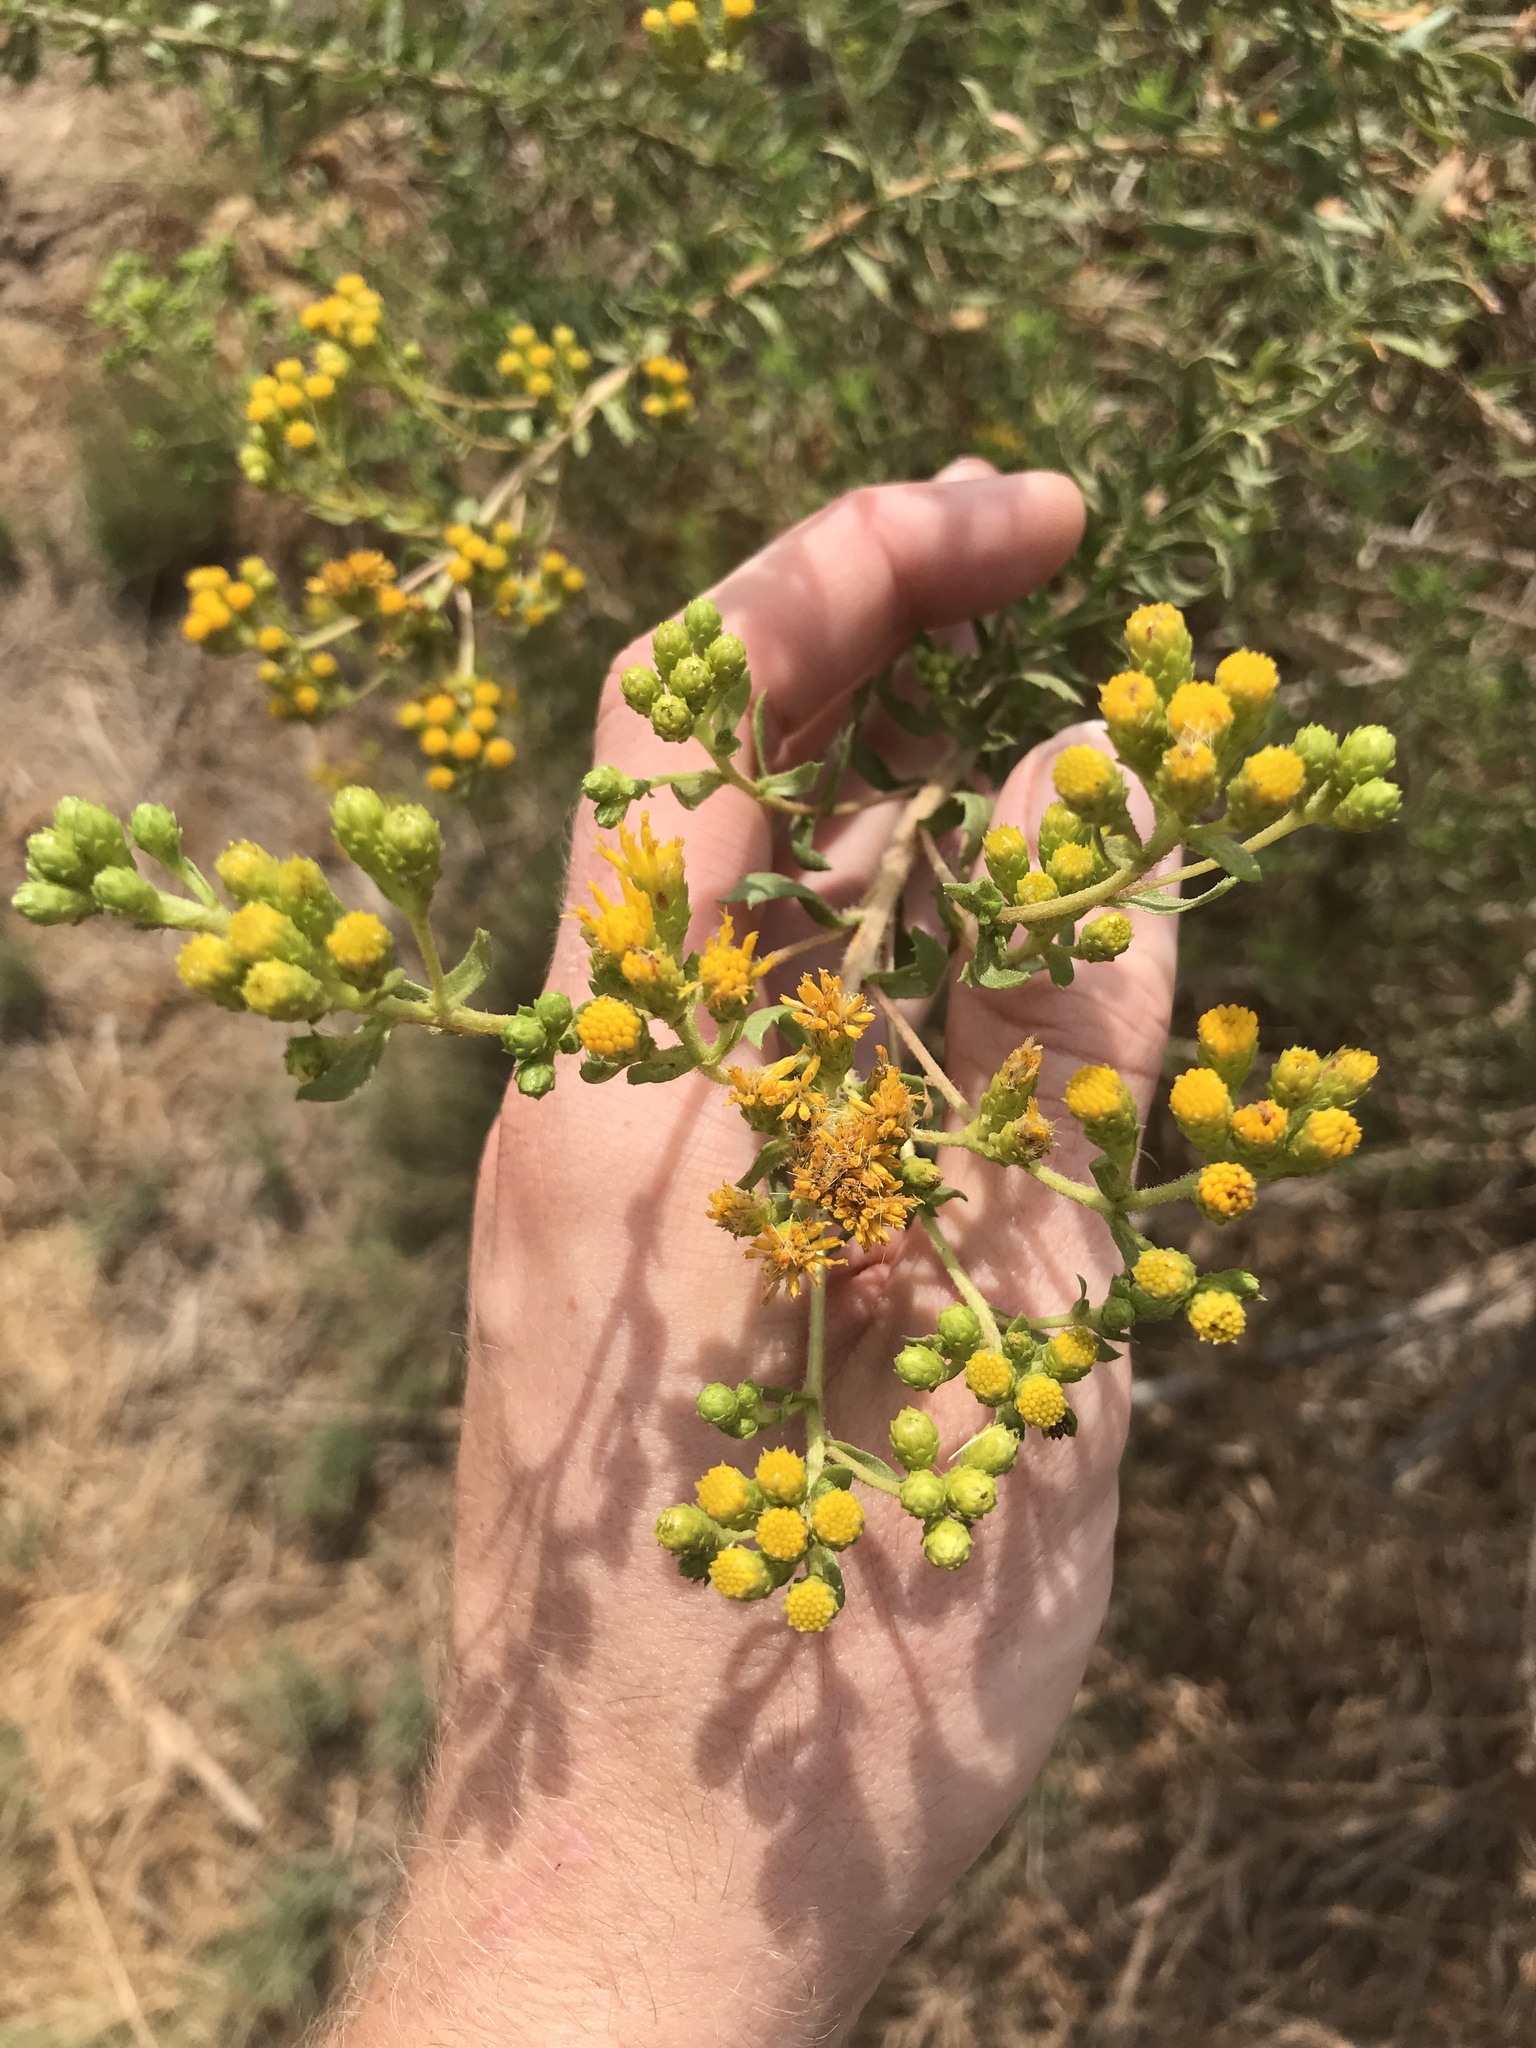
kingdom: Plantae
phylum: Tracheophyta
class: Magnoliopsida
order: Asterales
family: Asteraceae
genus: Isocoma
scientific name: Isocoma menziesii
